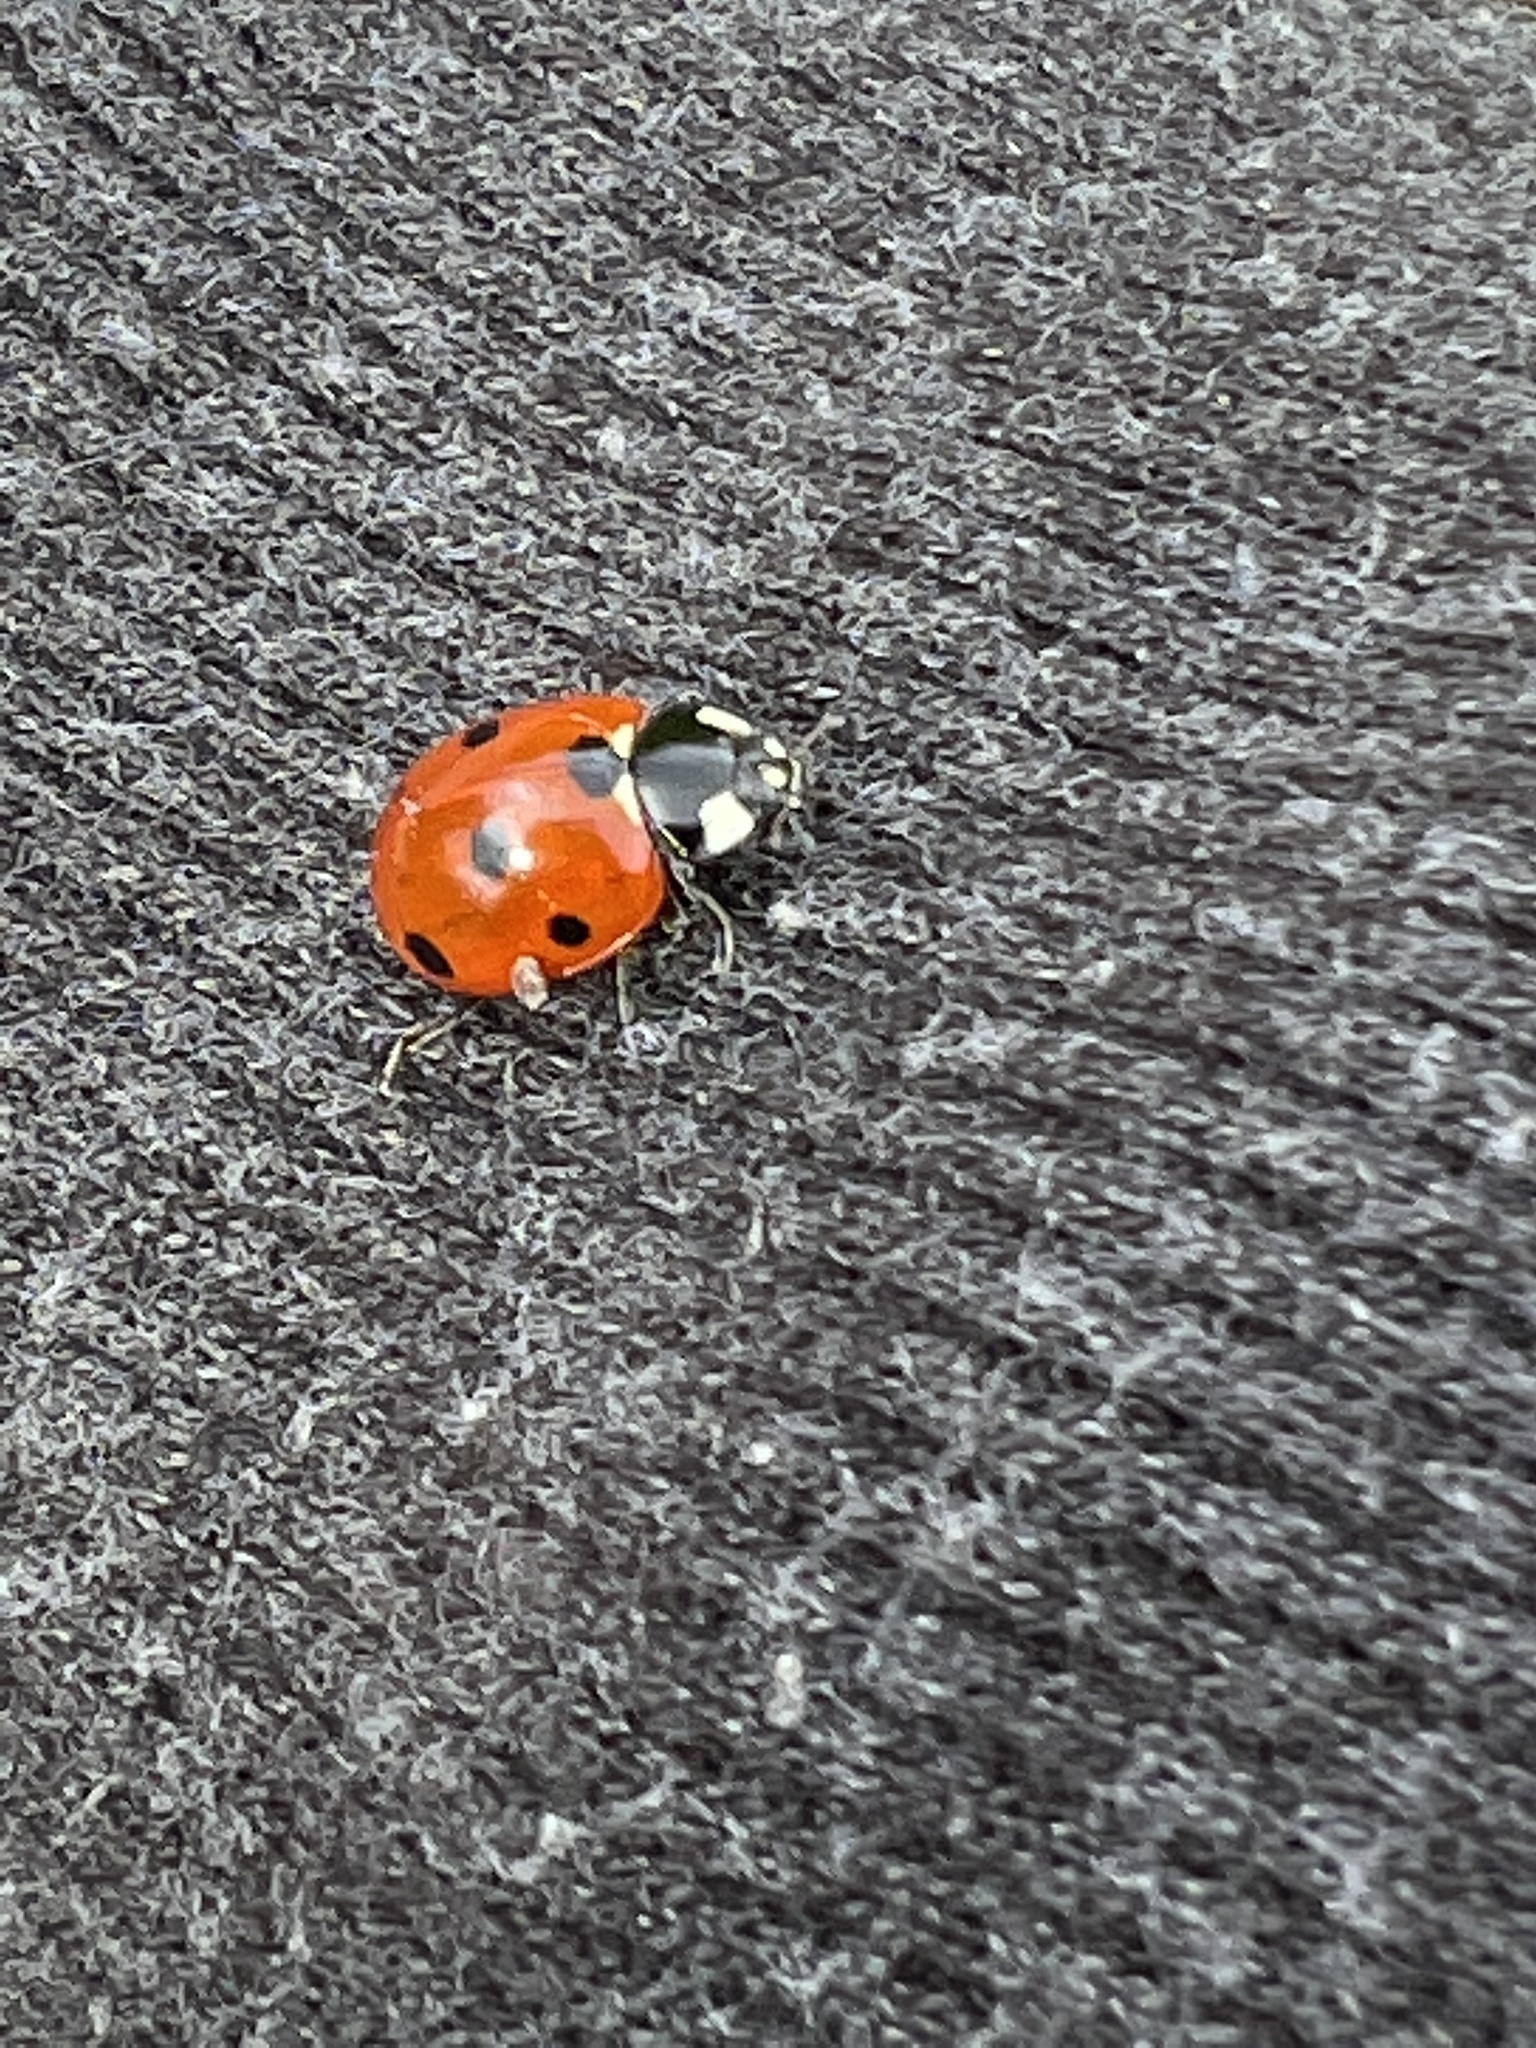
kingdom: Animalia
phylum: Arthropoda
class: Insecta
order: Coleoptera
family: Coccinellidae
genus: Coccinella
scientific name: Coccinella septempunctata
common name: Sevenspotted lady beetle
